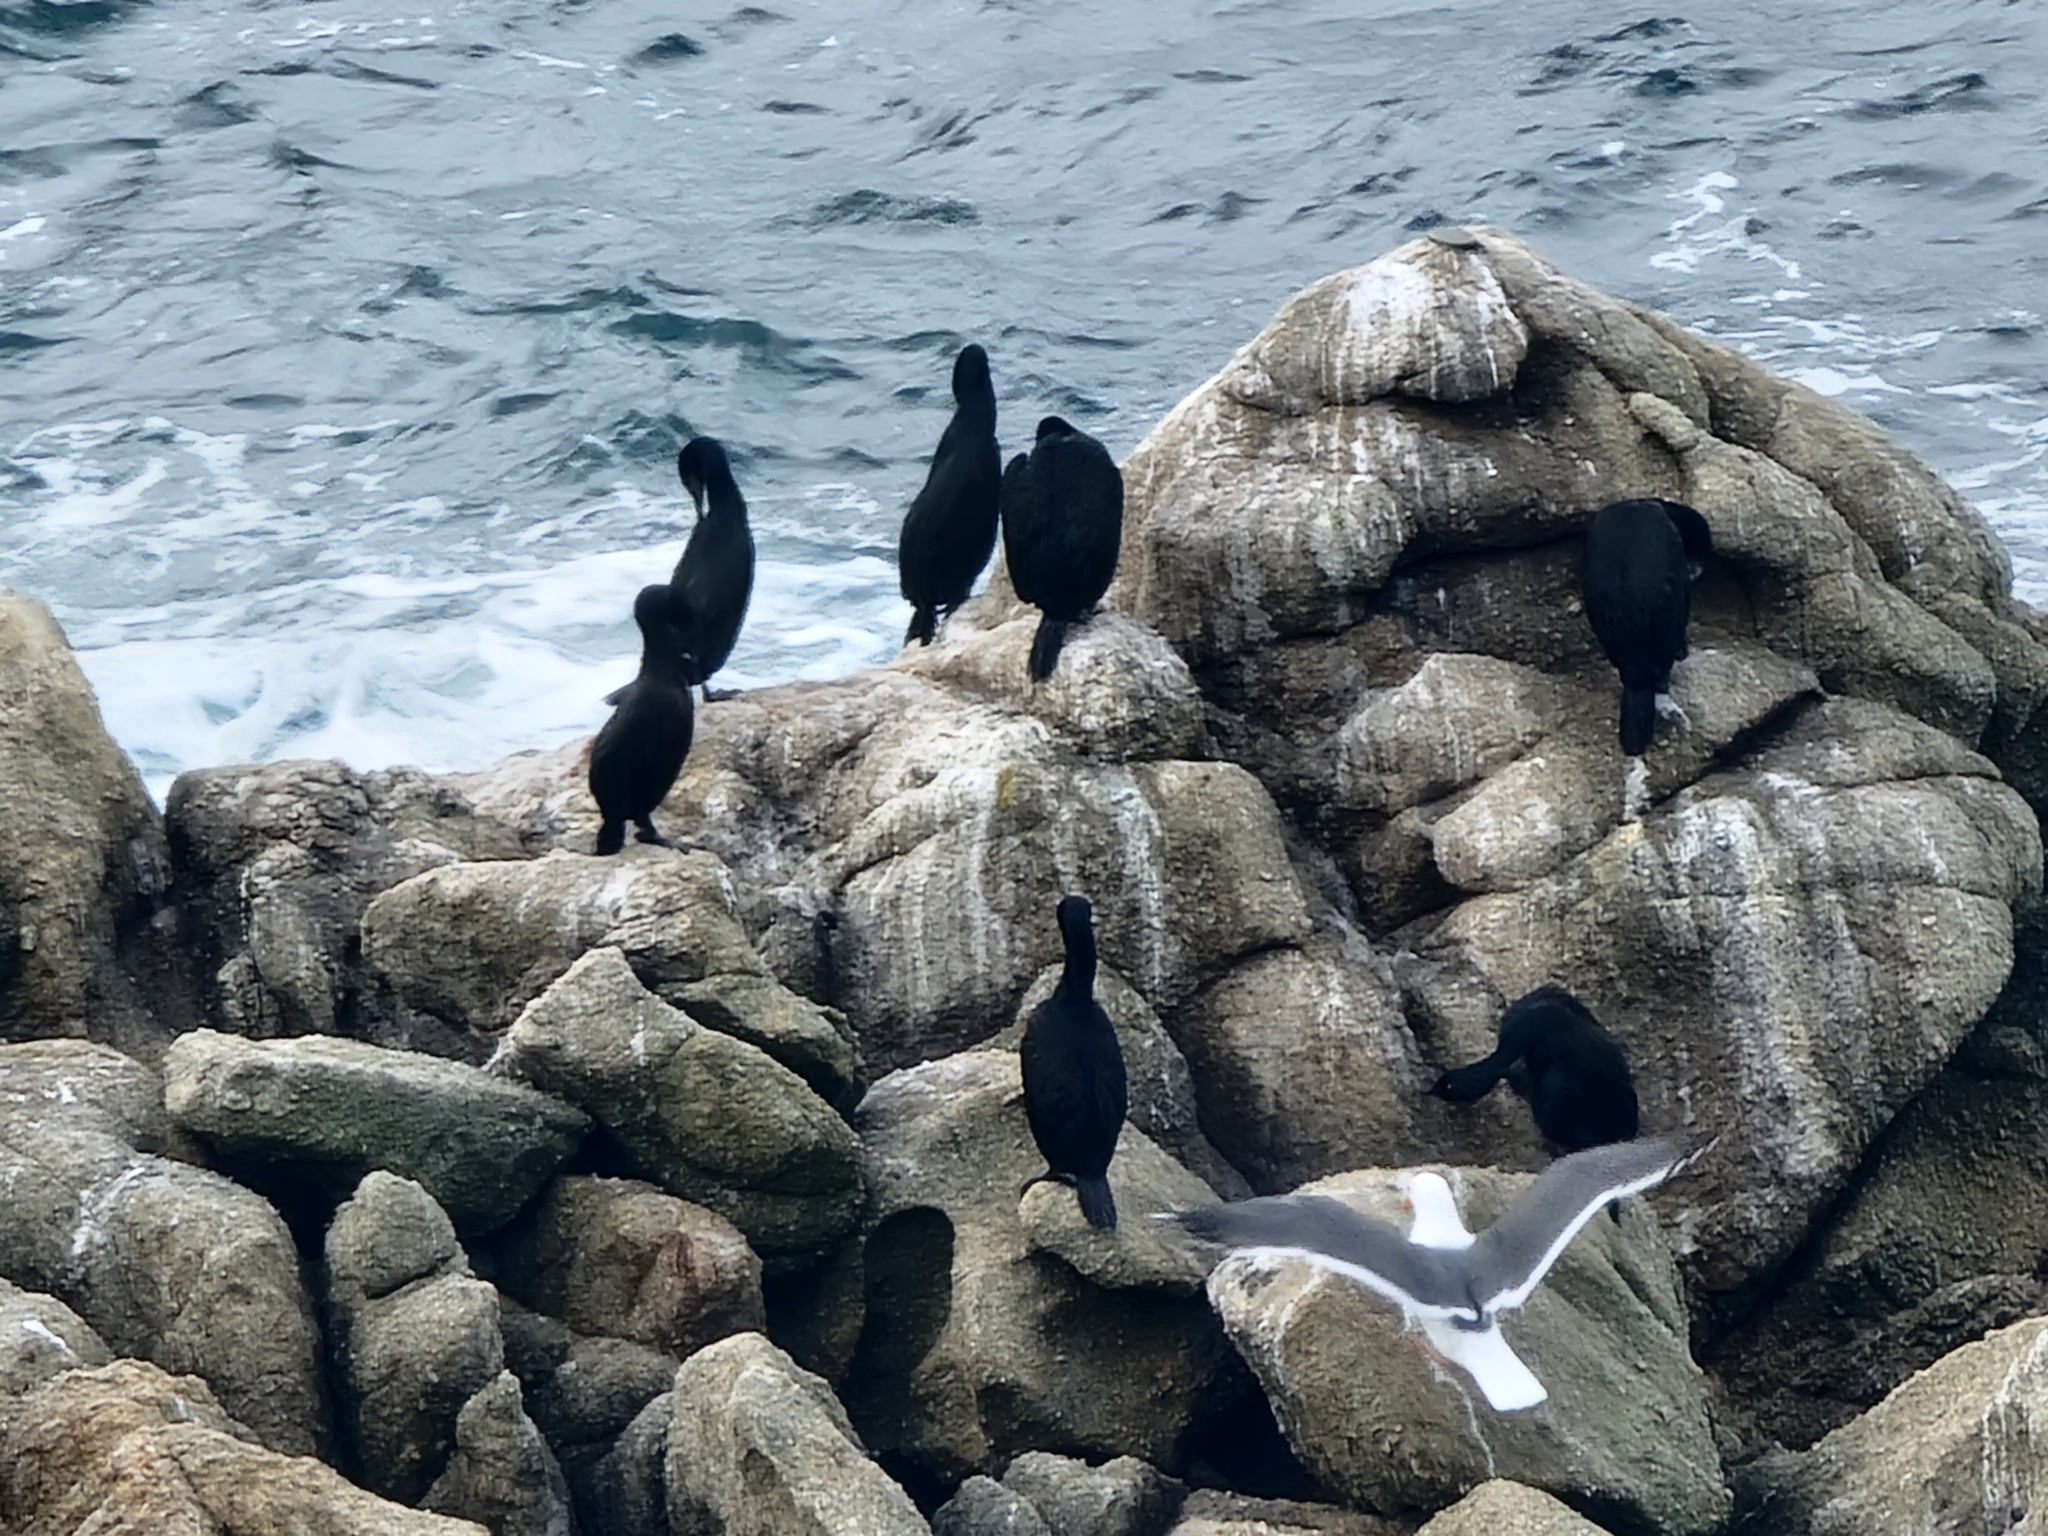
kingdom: Animalia
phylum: Chordata
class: Aves
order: Suliformes
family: Phalacrocoracidae
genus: Urile
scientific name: Urile penicillatus
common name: Brandt's cormorant
